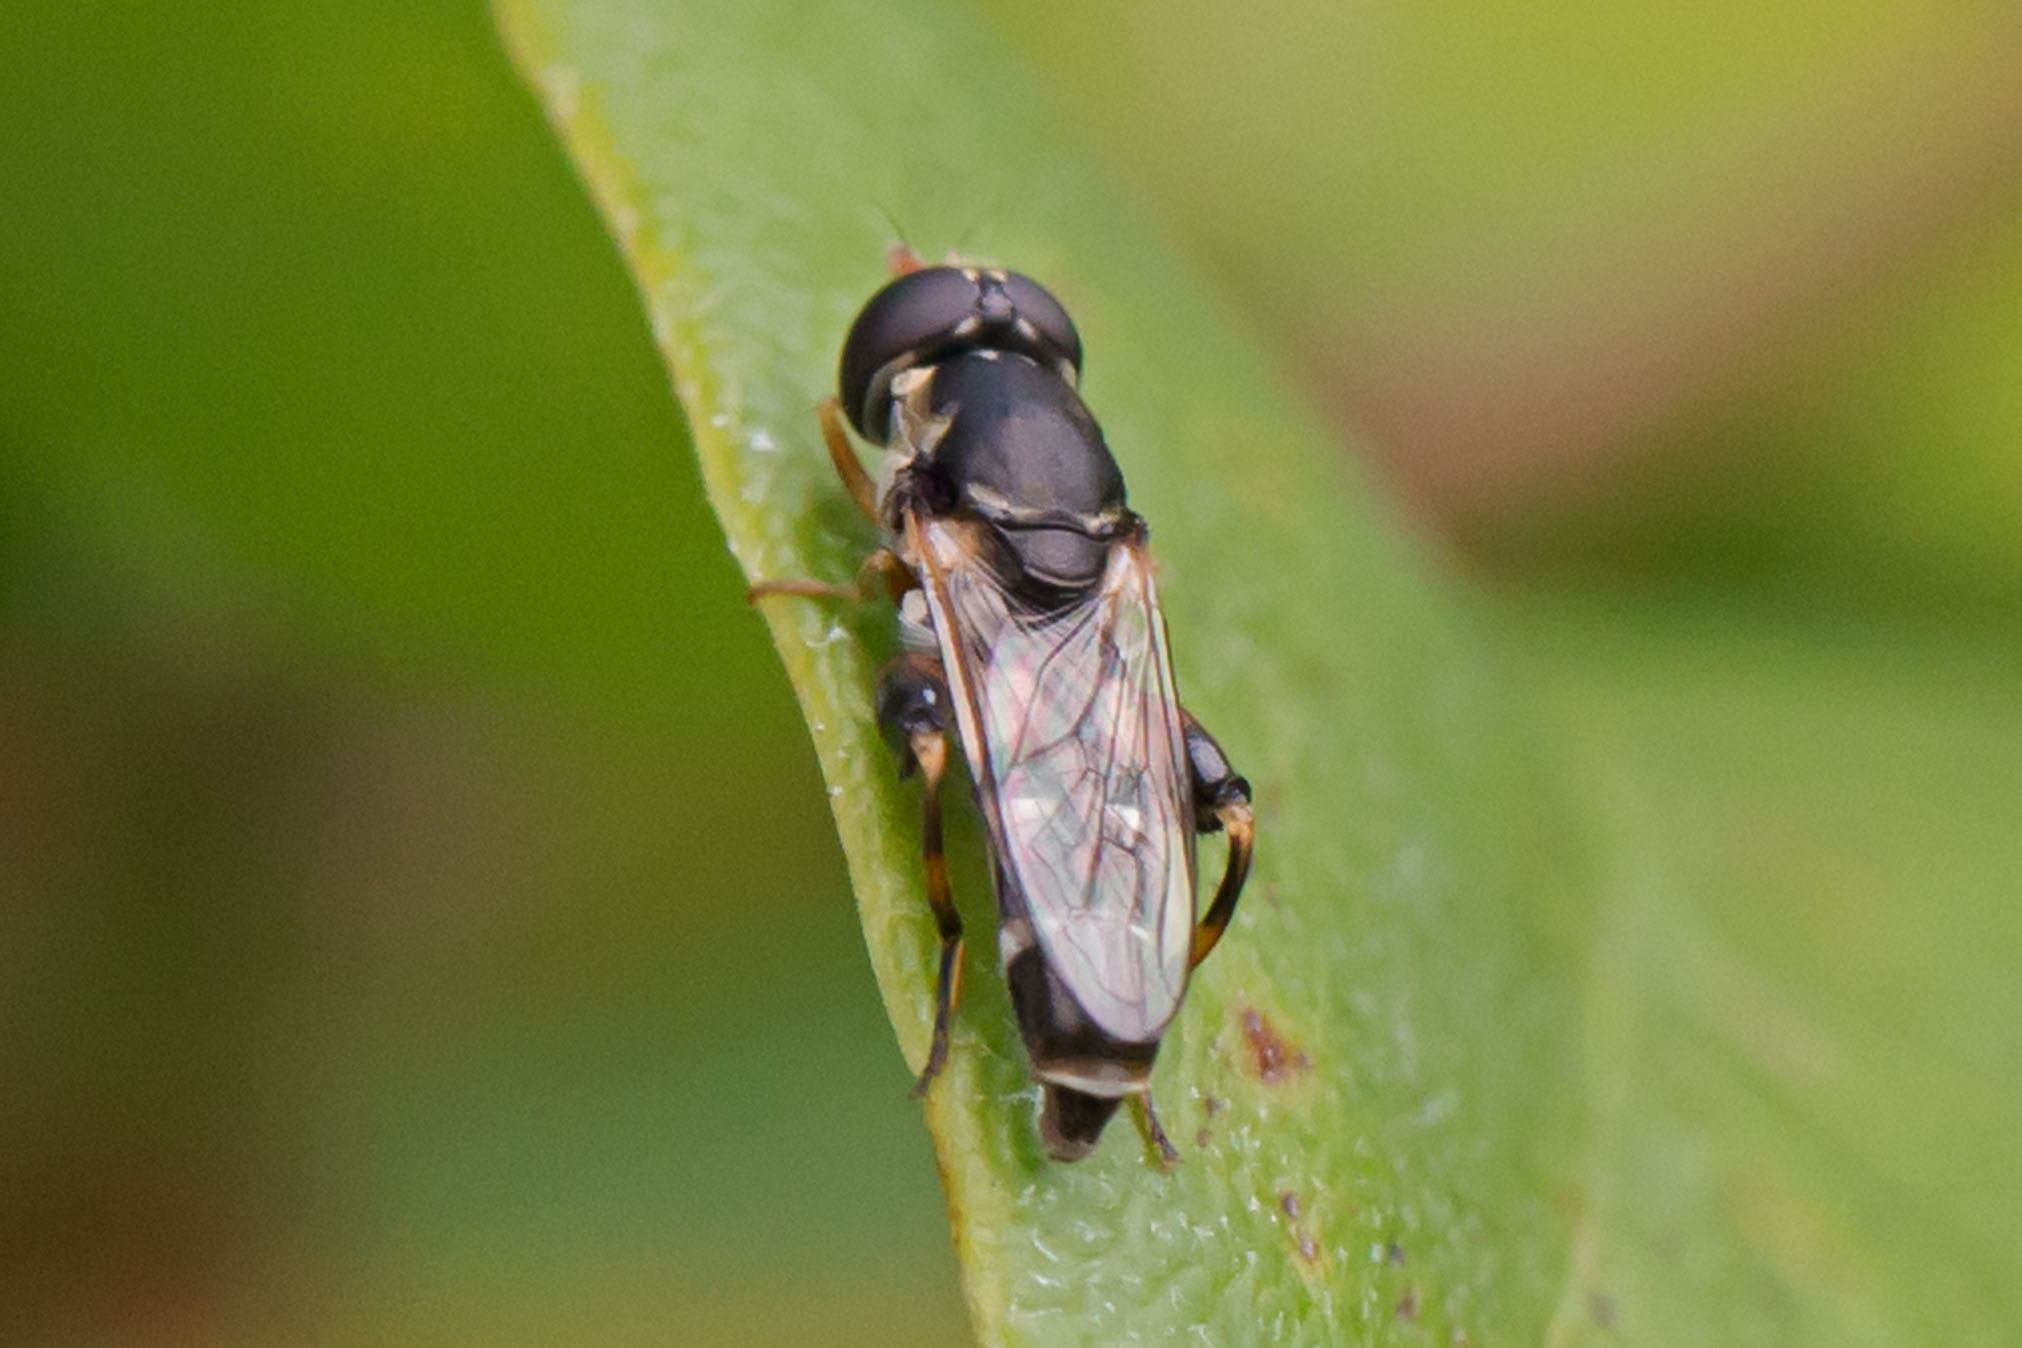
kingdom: Animalia
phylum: Arthropoda
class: Insecta
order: Diptera
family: Syrphidae
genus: Syritta
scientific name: Syritta pipiens
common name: Hover fly
